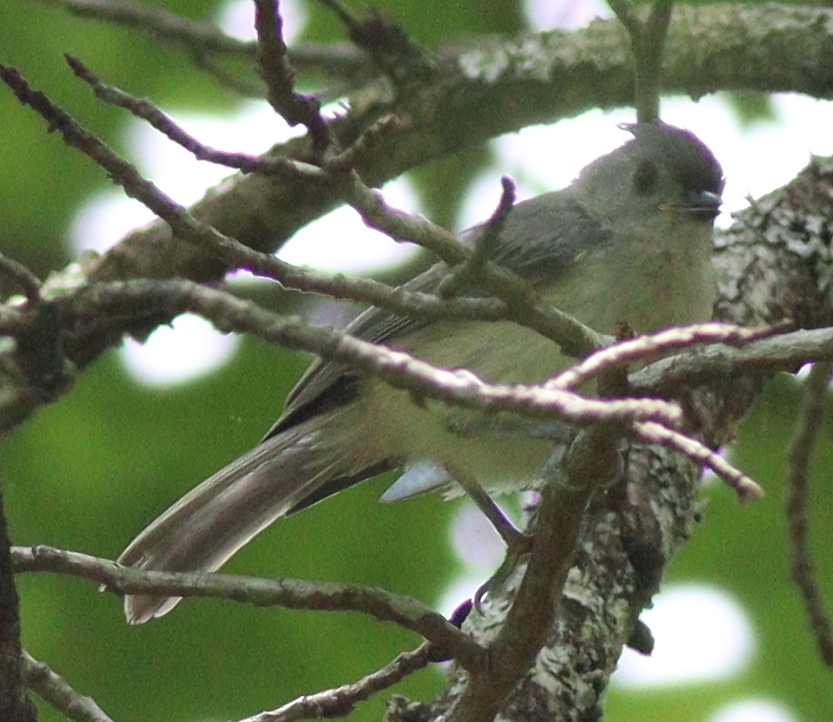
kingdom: Animalia
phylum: Chordata
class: Aves
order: Passeriformes
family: Paridae
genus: Baeolophus
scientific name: Baeolophus bicolor
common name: Tufted titmouse
